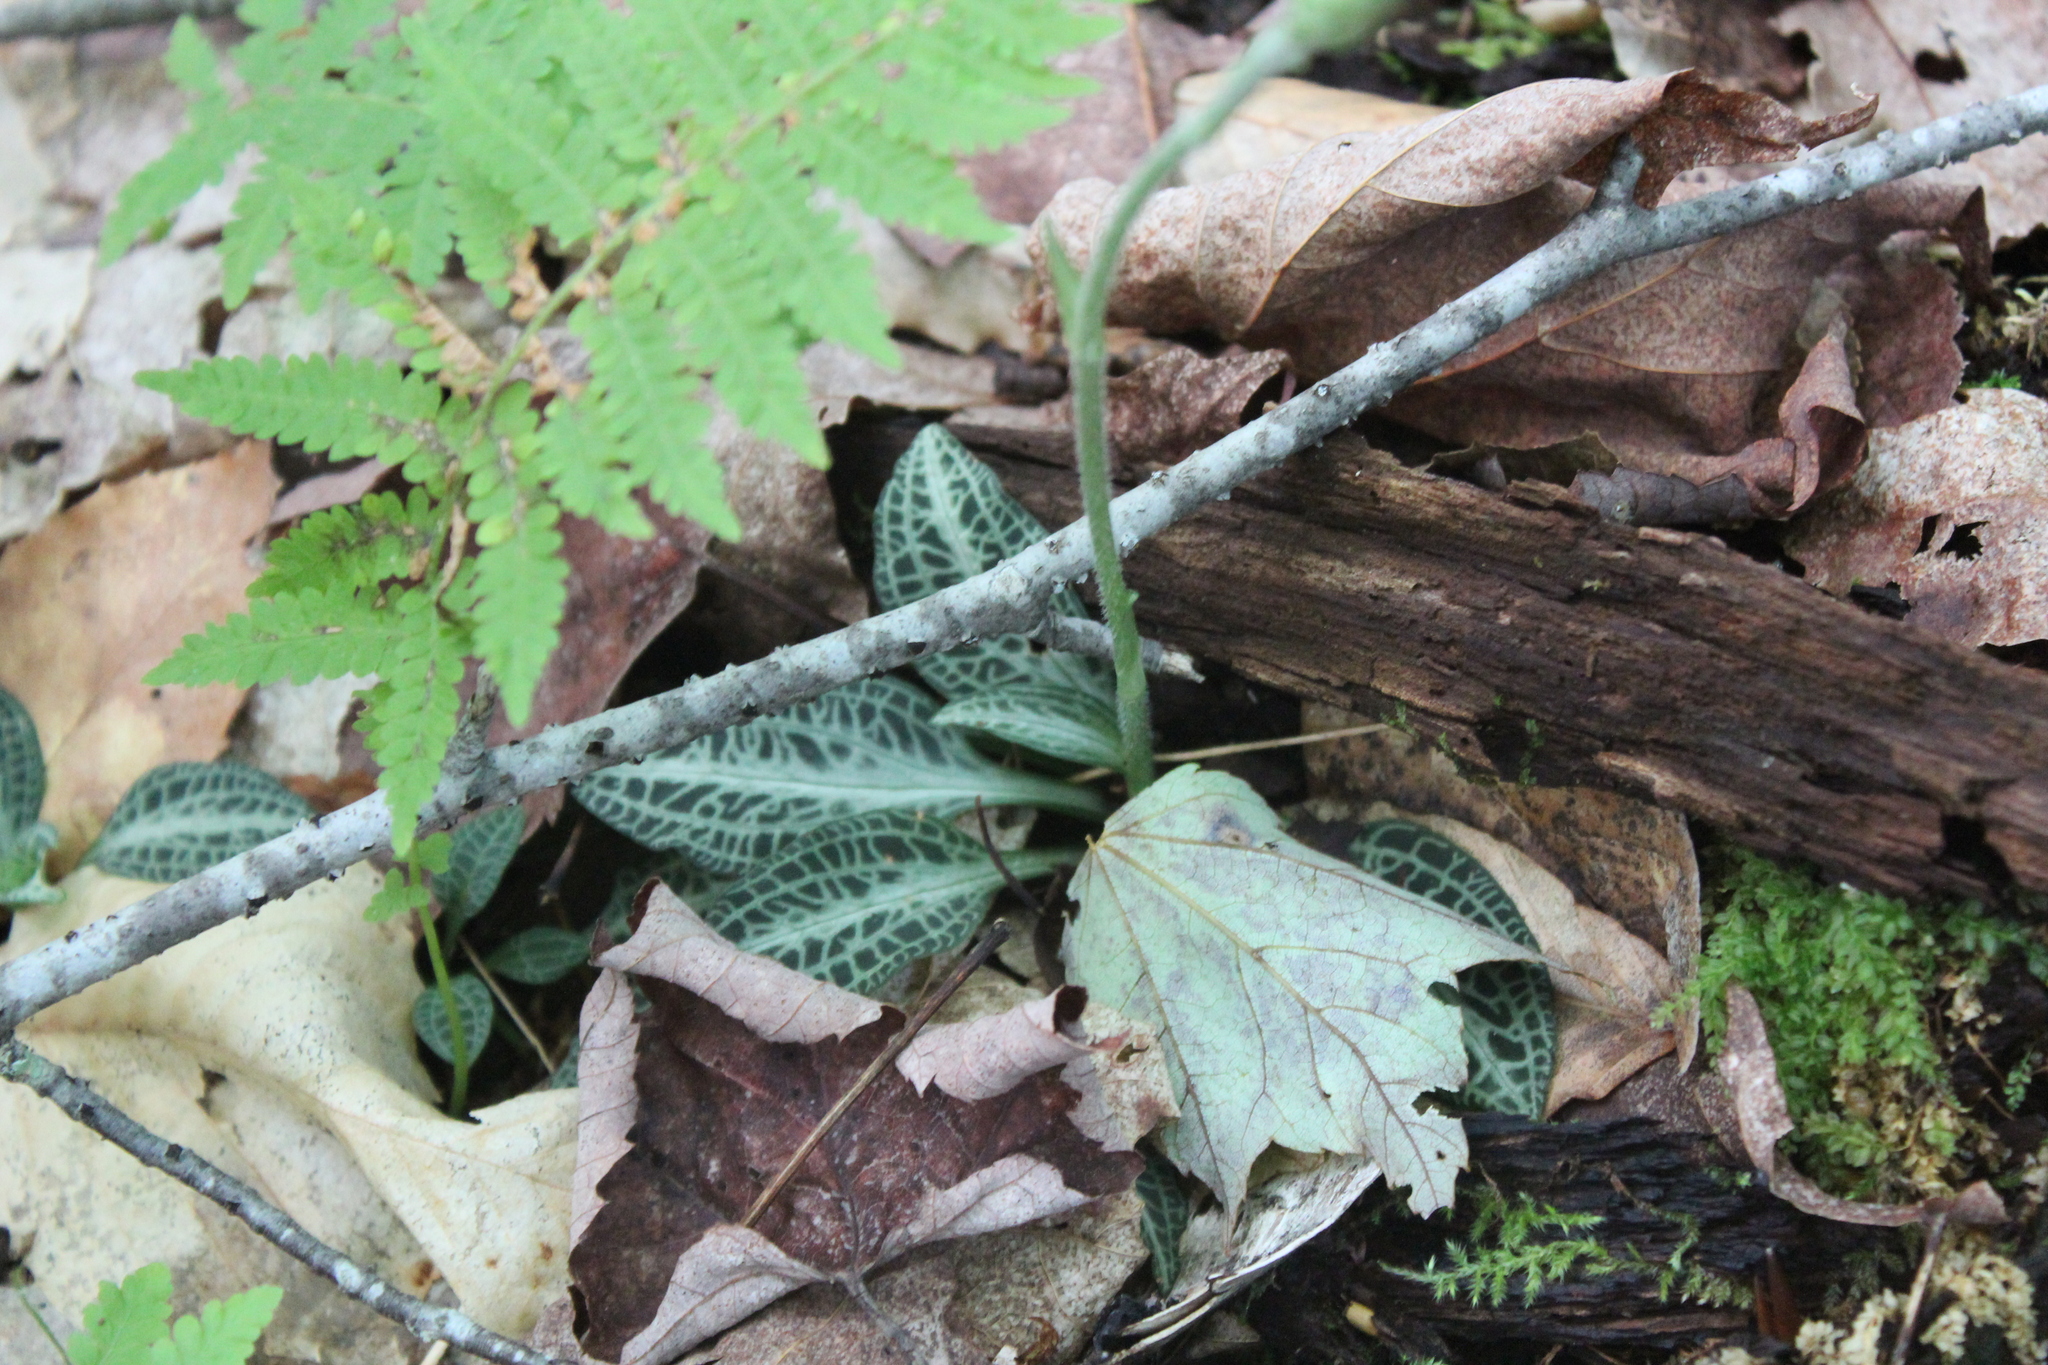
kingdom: Plantae
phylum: Tracheophyta
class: Liliopsida
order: Asparagales
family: Orchidaceae
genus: Goodyera
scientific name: Goodyera pubescens
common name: Downy rattlesnake-plantain
